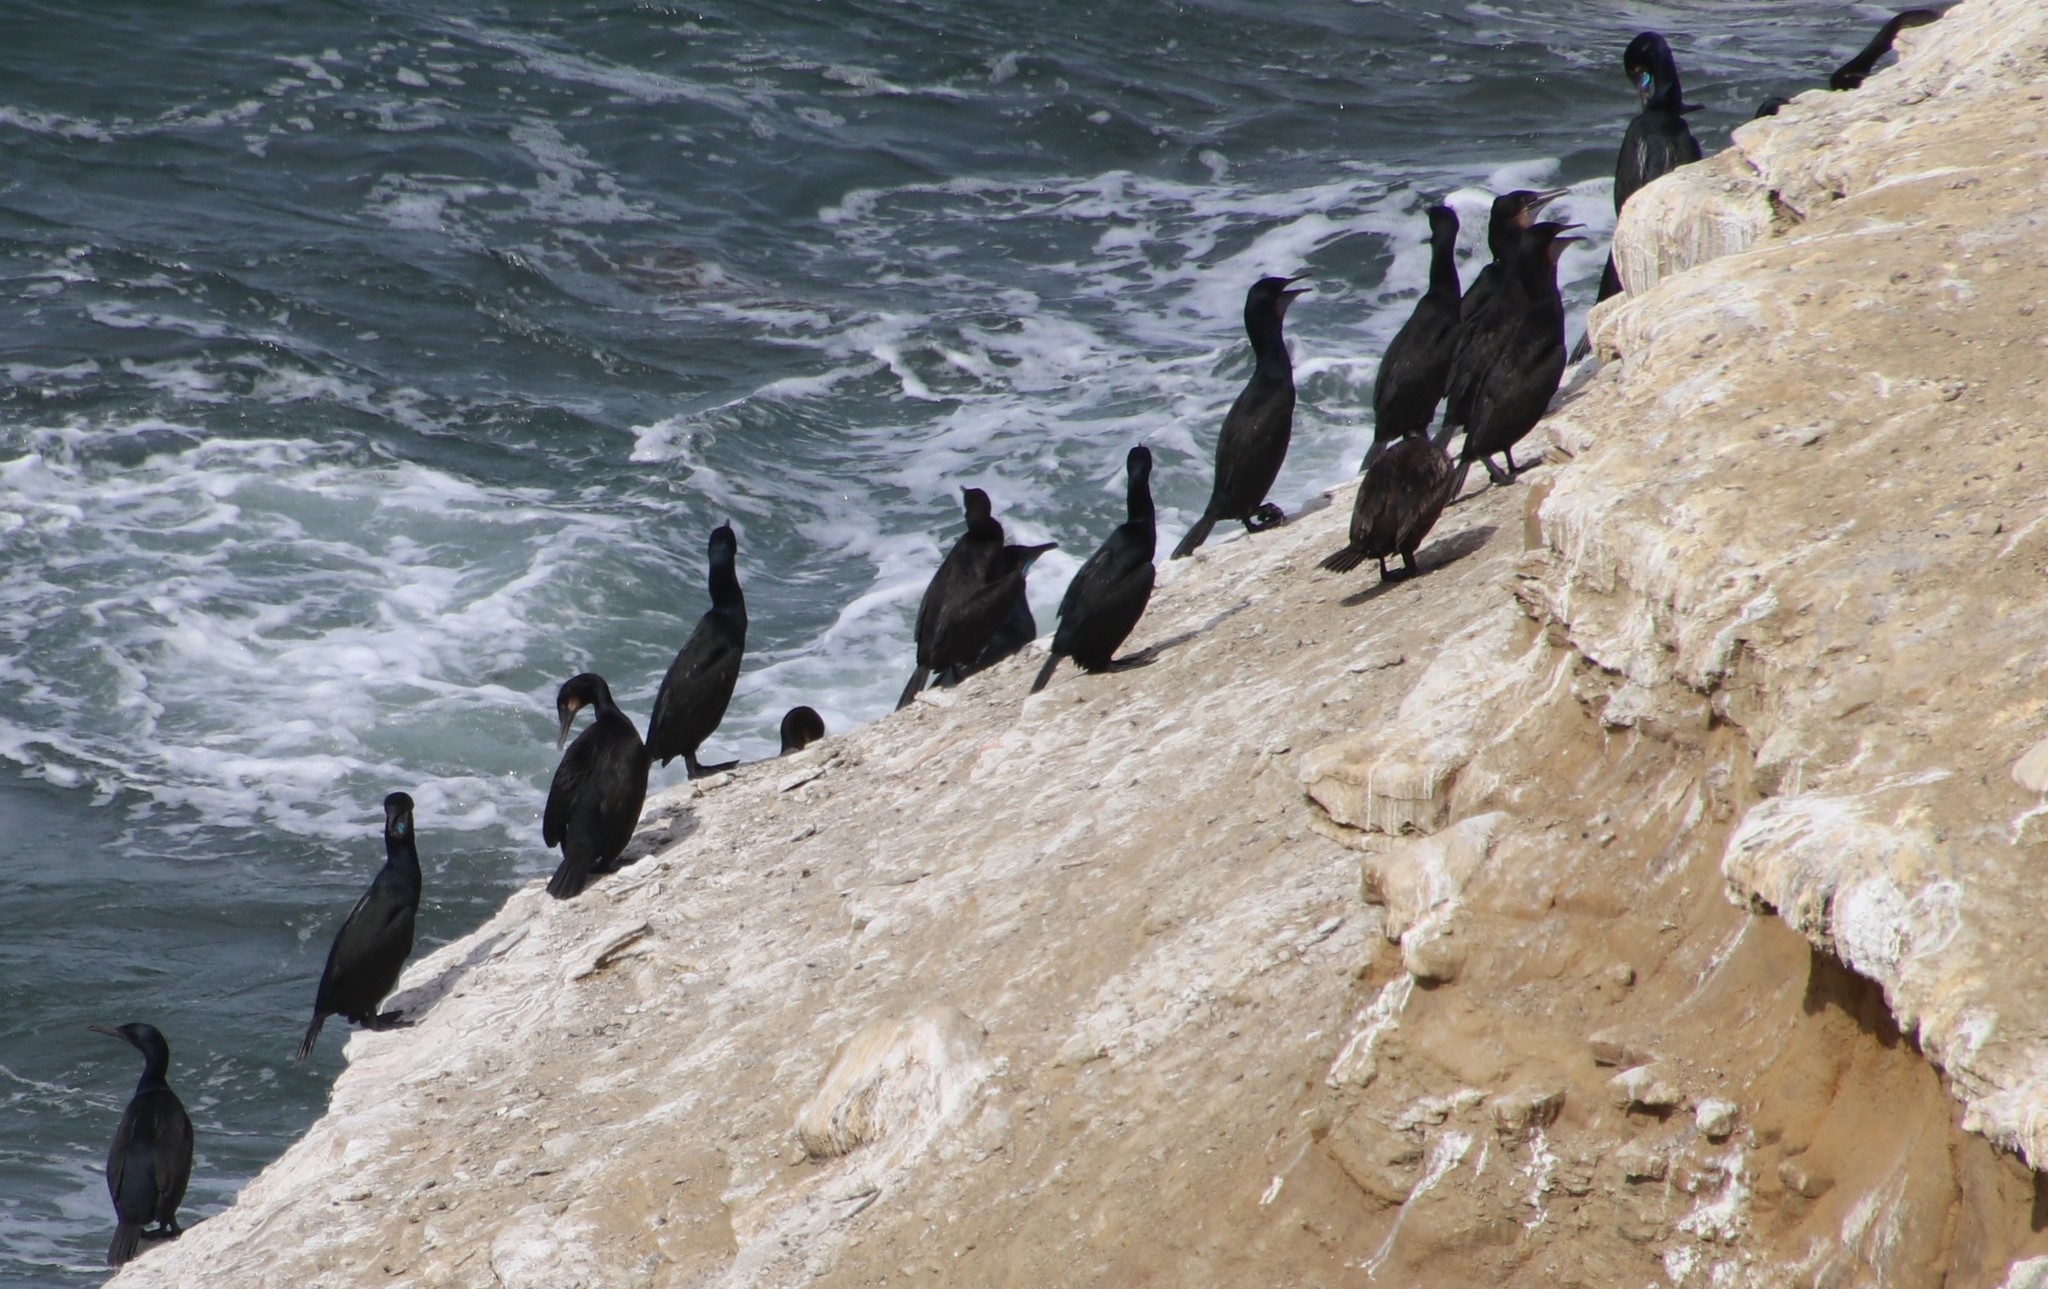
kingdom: Animalia
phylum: Chordata
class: Aves
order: Suliformes
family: Phalacrocoracidae
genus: Urile
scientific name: Urile penicillatus
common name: Brandt's cormorant
